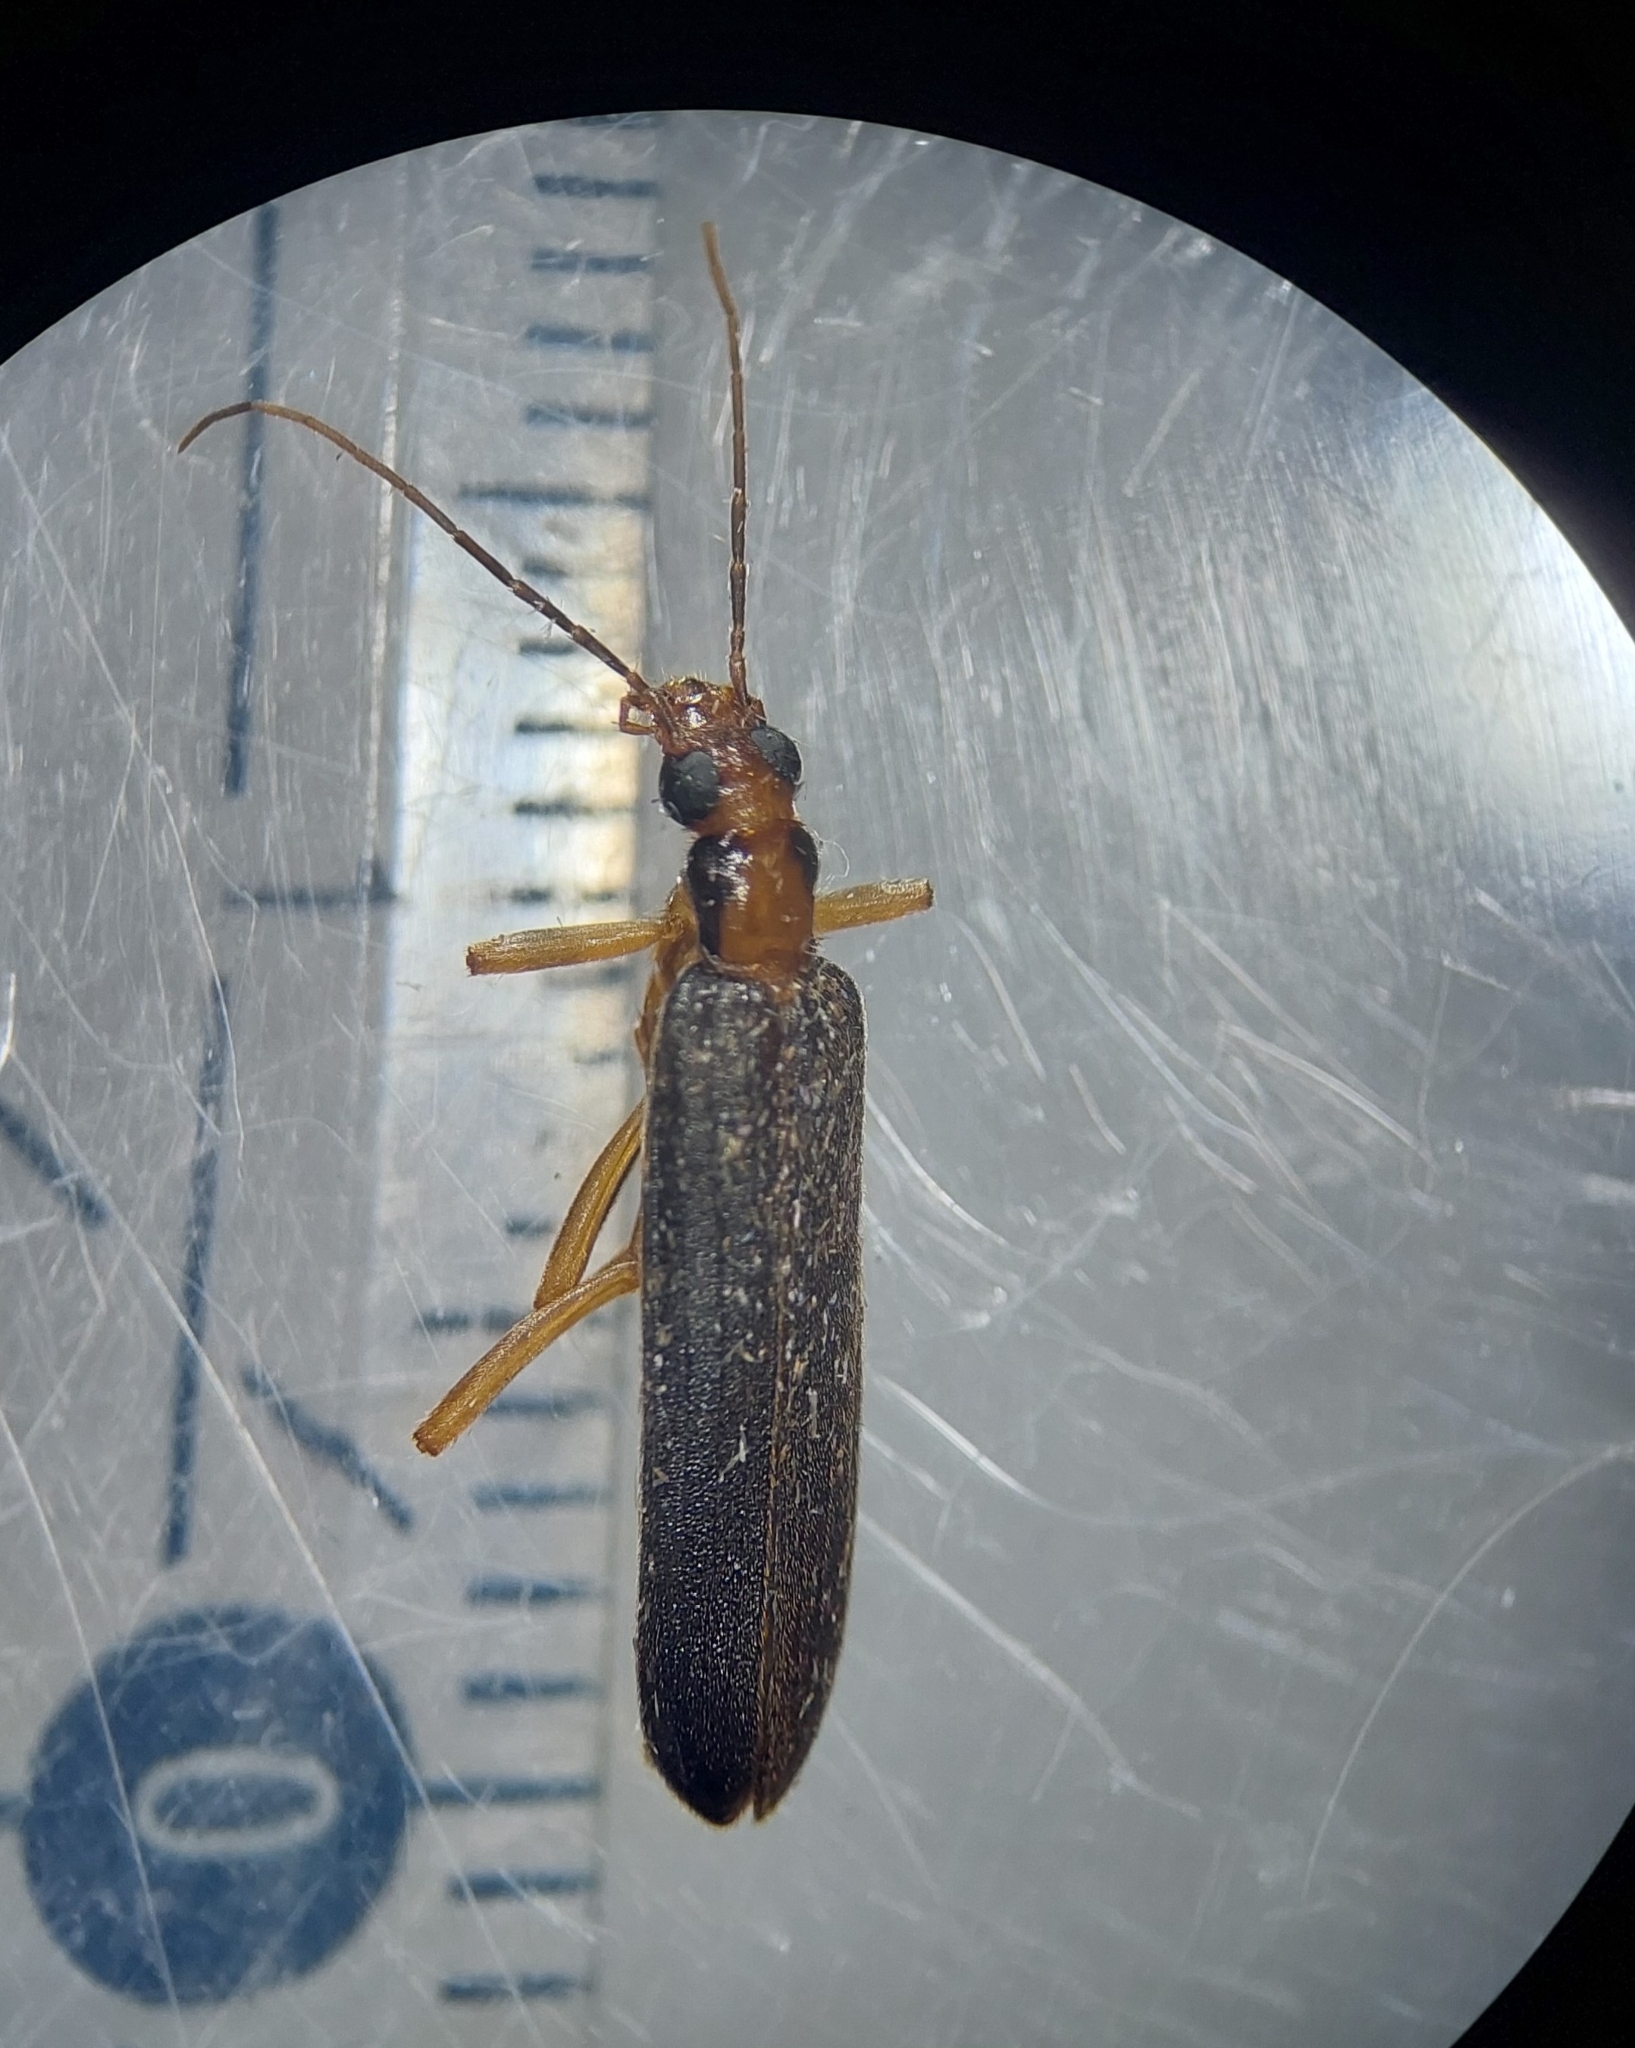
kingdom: Animalia
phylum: Arthropoda
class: Insecta
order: Coleoptera
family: Oedemeridae
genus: Nacerdes
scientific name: Nacerdes carniolica
